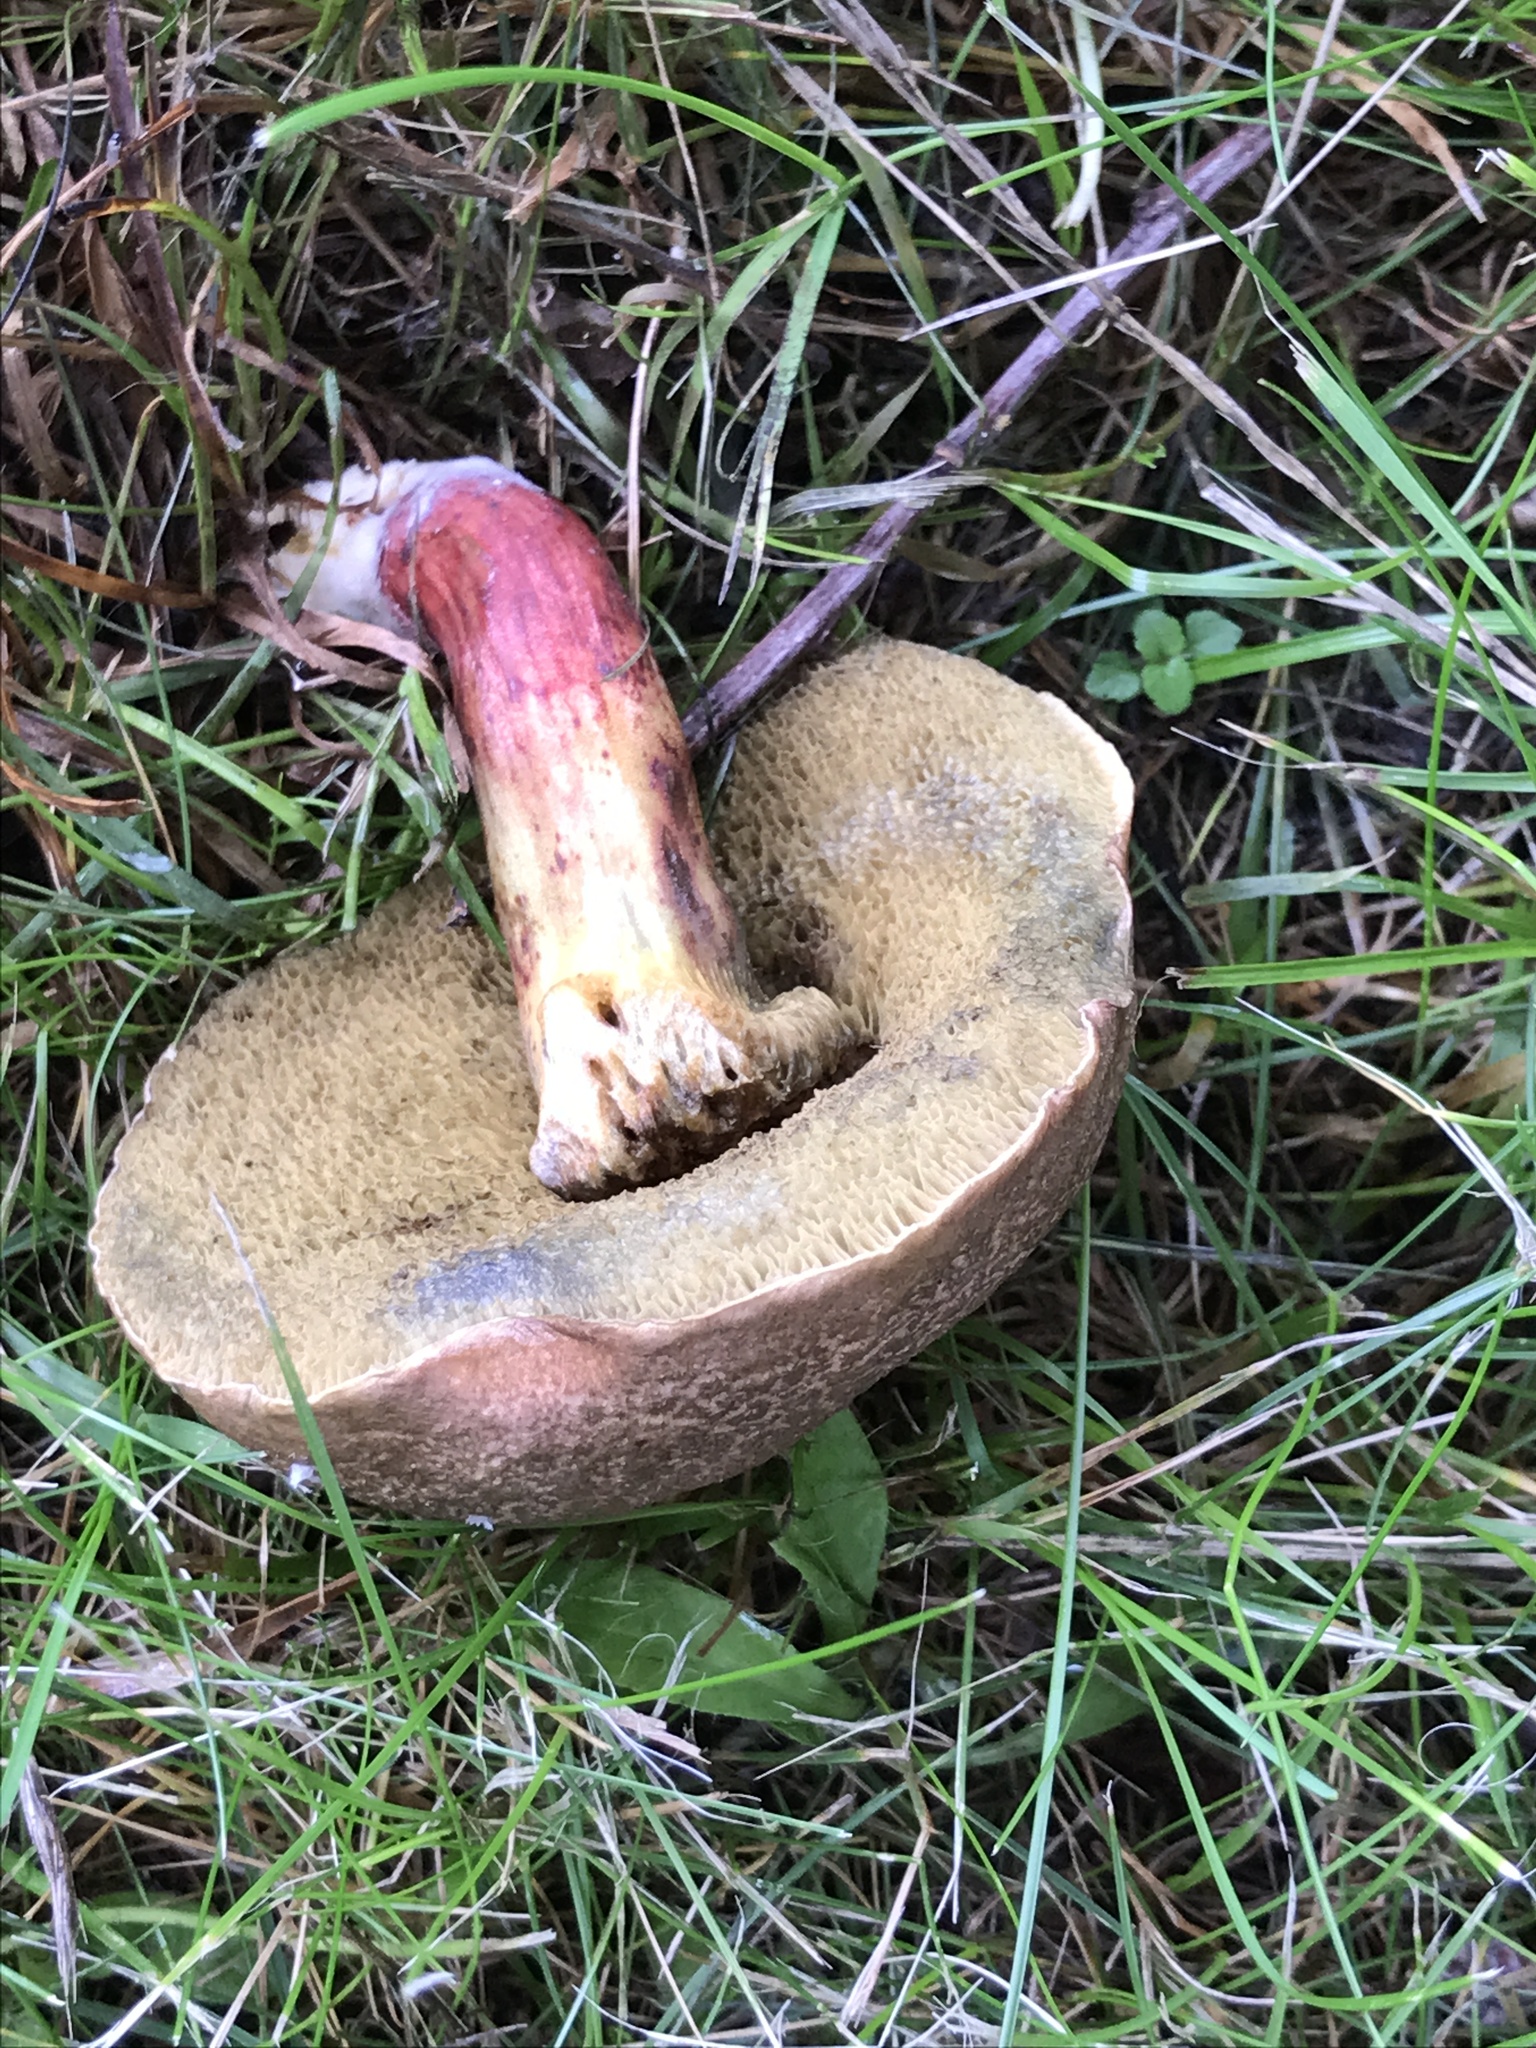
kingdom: Fungi
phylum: Basidiomycota
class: Agaricomycetes
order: Boletales
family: Boletaceae
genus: Xerocomellus
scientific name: Xerocomellus chrysenteron
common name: Red-cracking bolete
